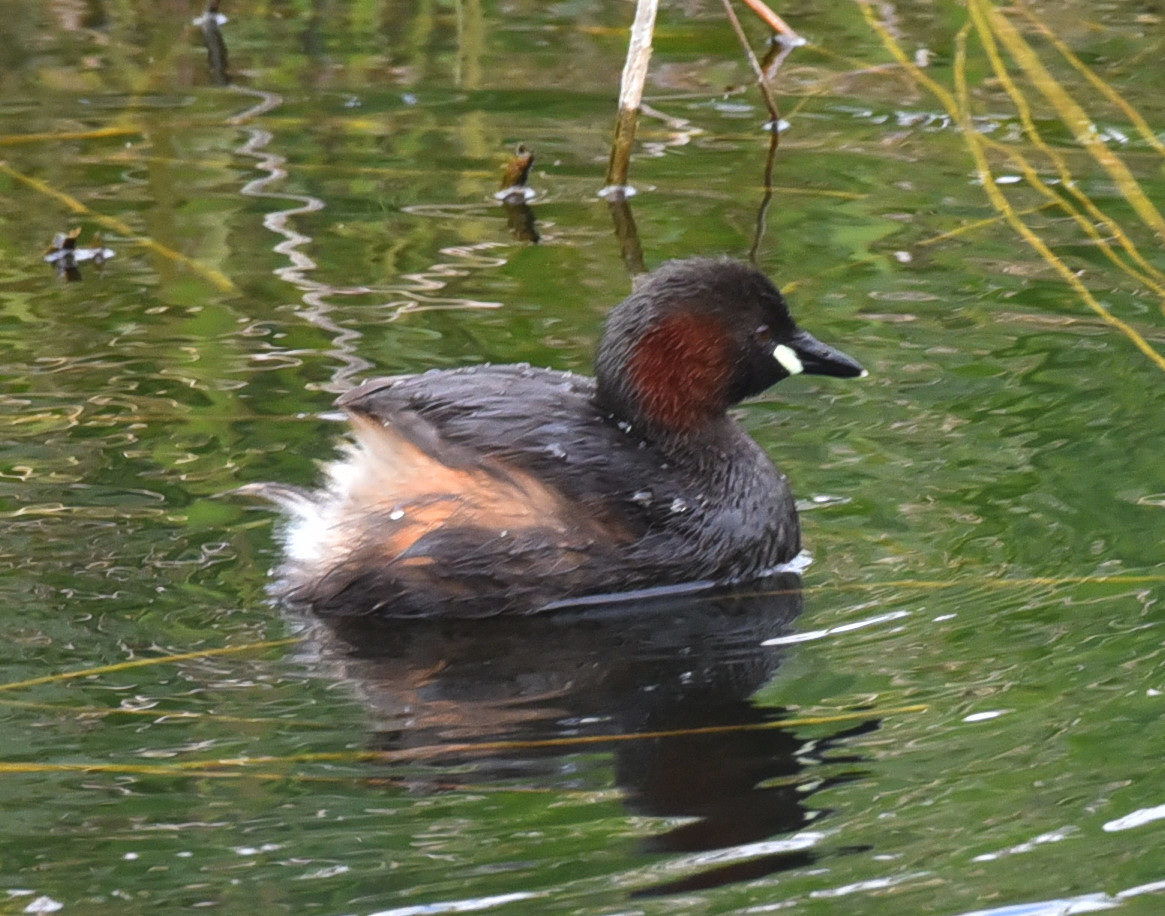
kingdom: Animalia
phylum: Chordata
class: Aves
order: Podicipediformes
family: Podicipedidae
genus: Tachybaptus
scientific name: Tachybaptus ruficollis
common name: Little grebe
